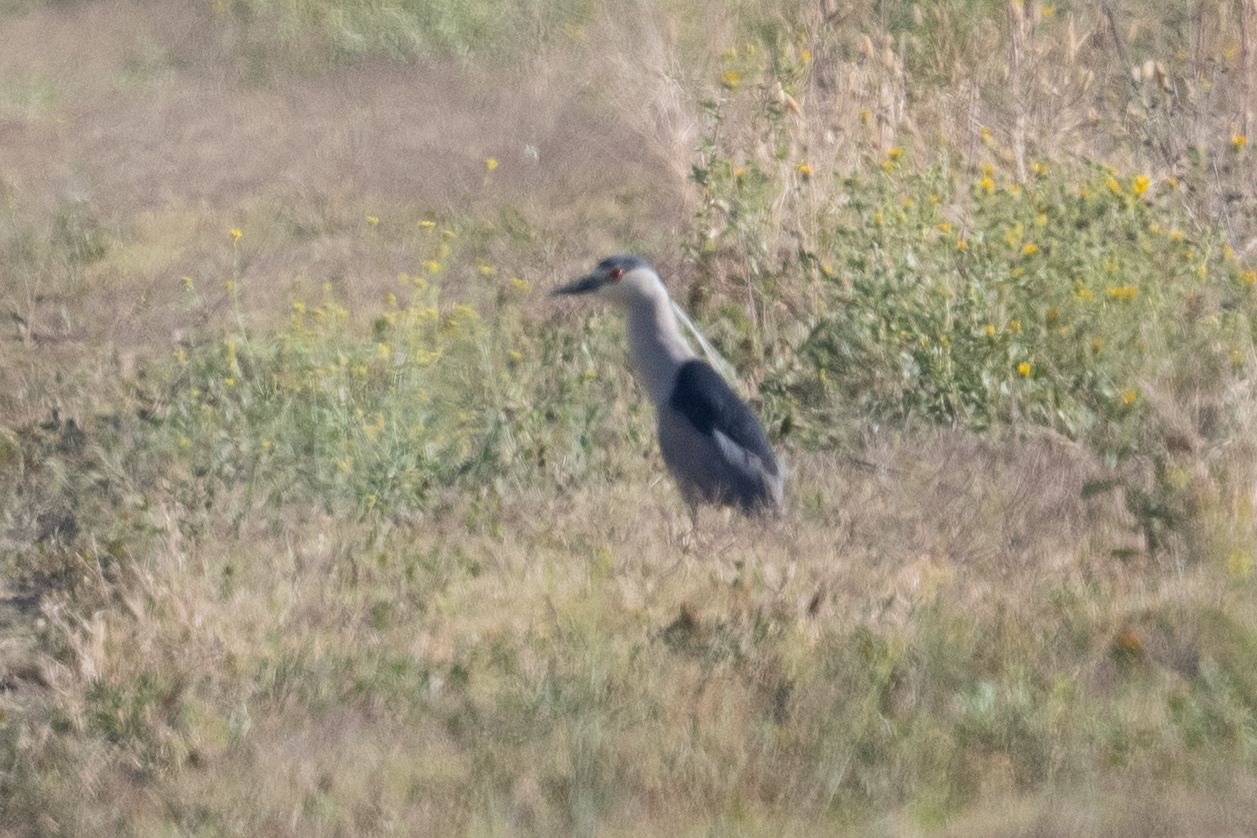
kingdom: Animalia
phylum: Chordata
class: Aves
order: Pelecaniformes
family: Ardeidae
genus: Nycticorax
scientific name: Nycticorax nycticorax
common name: Black-crowned night heron
